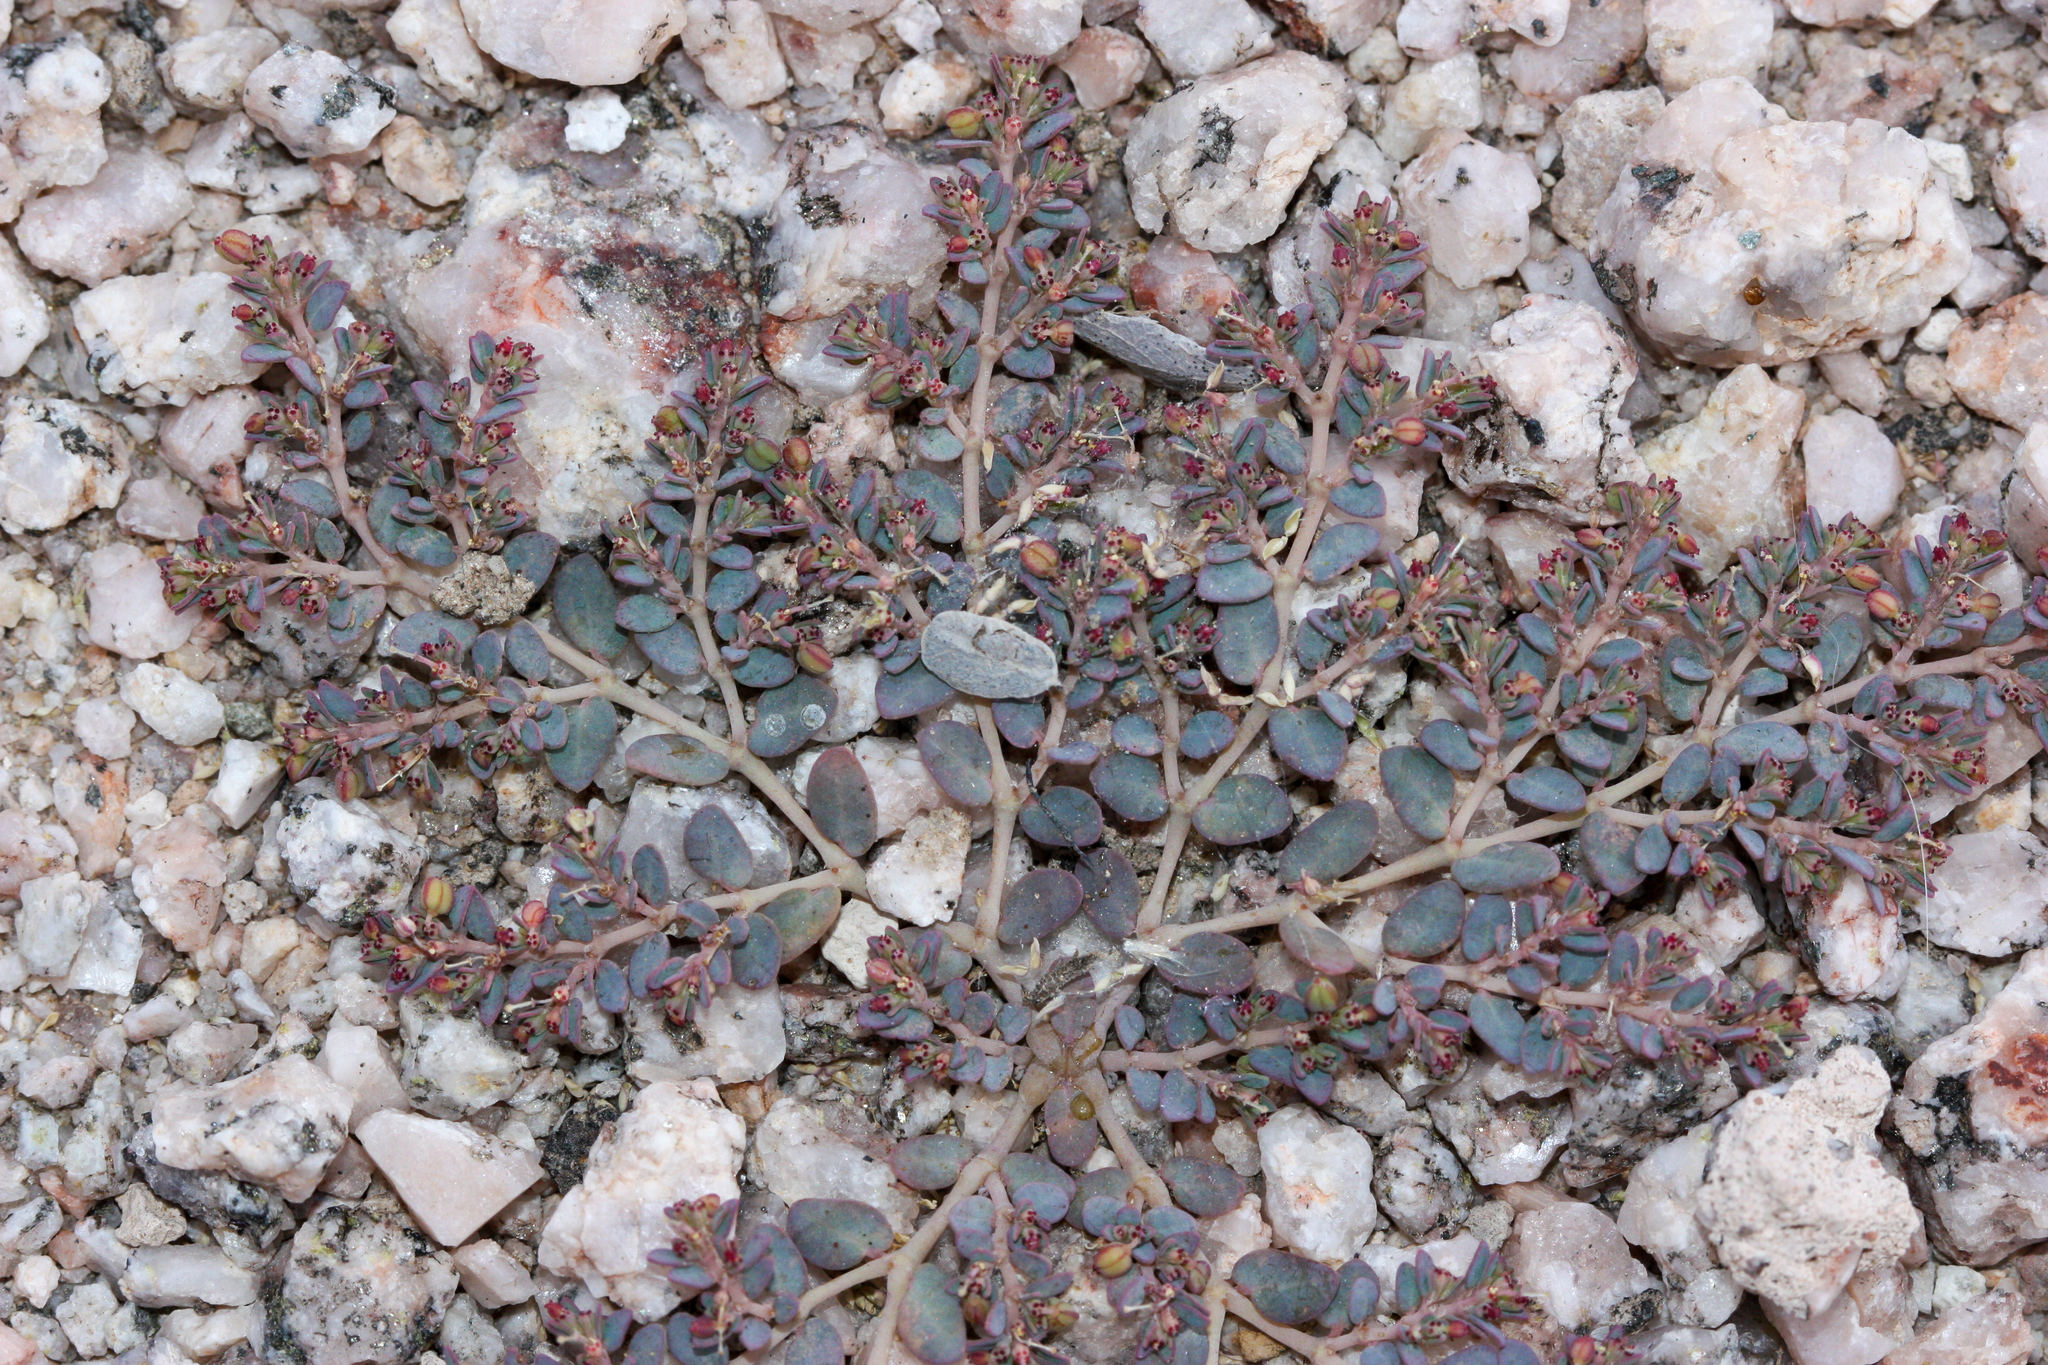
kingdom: Plantae
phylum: Tracheophyta
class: Magnoliopsida
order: Malpighiales
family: Euphorbiaceae
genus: Euphorbia
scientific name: Euphorbia micromera
